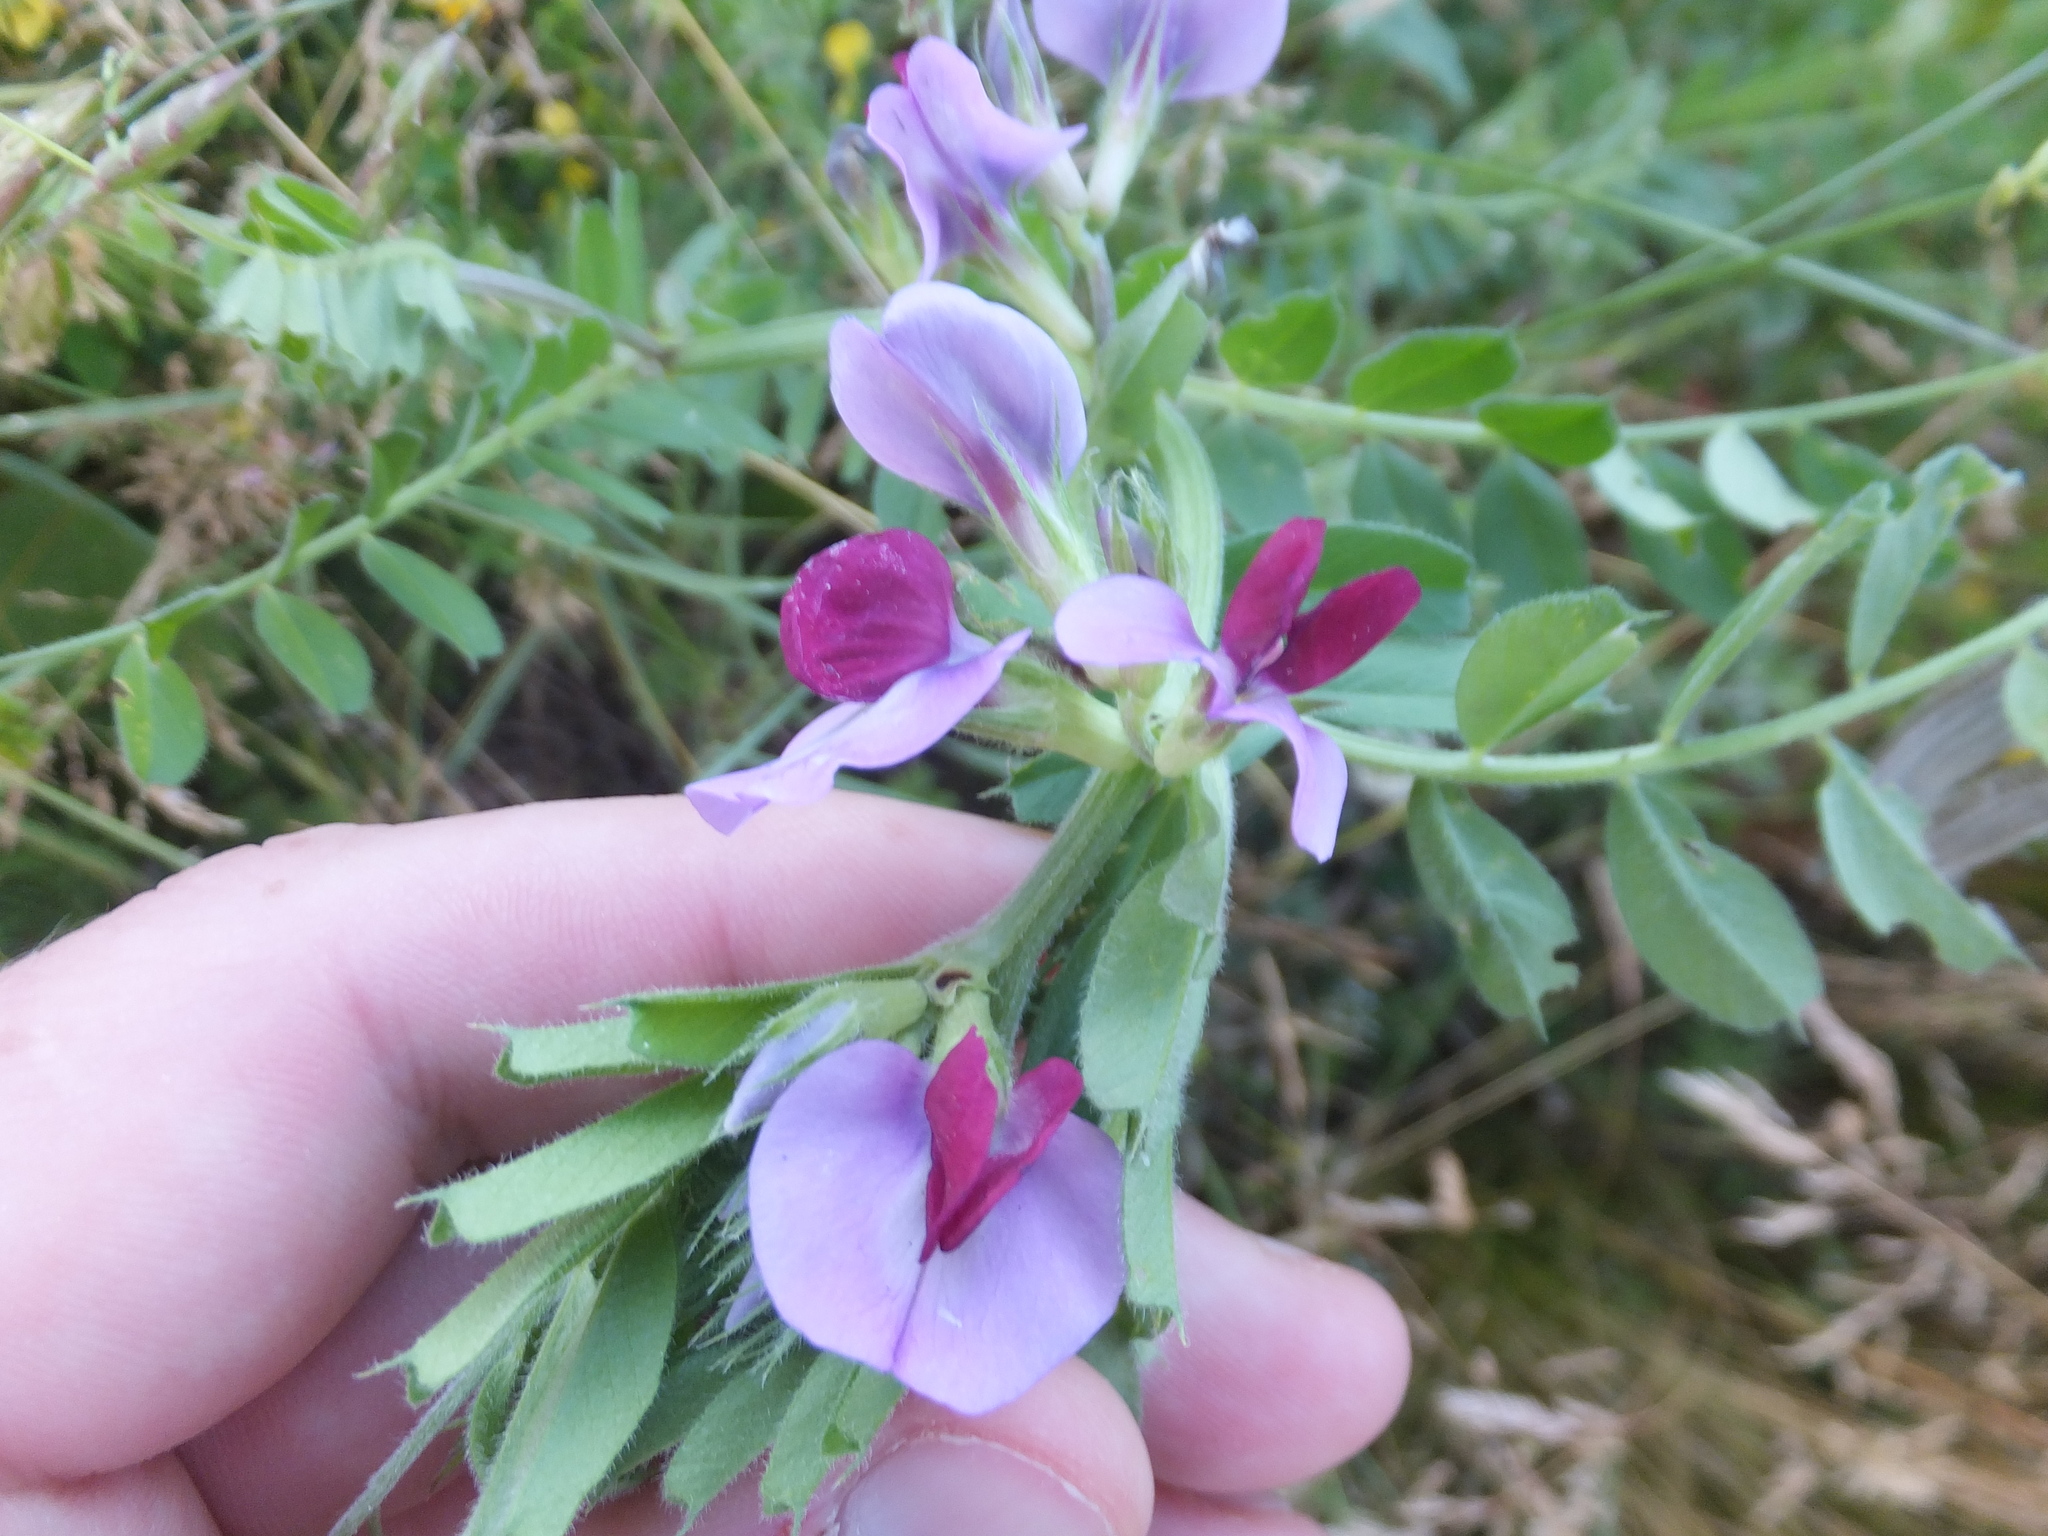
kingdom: Plantae
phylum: Tracheophyta
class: Magnoliopsida
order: Fabales
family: Fabaceae
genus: Vicia
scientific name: Vicia sativa
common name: Garden vetch
